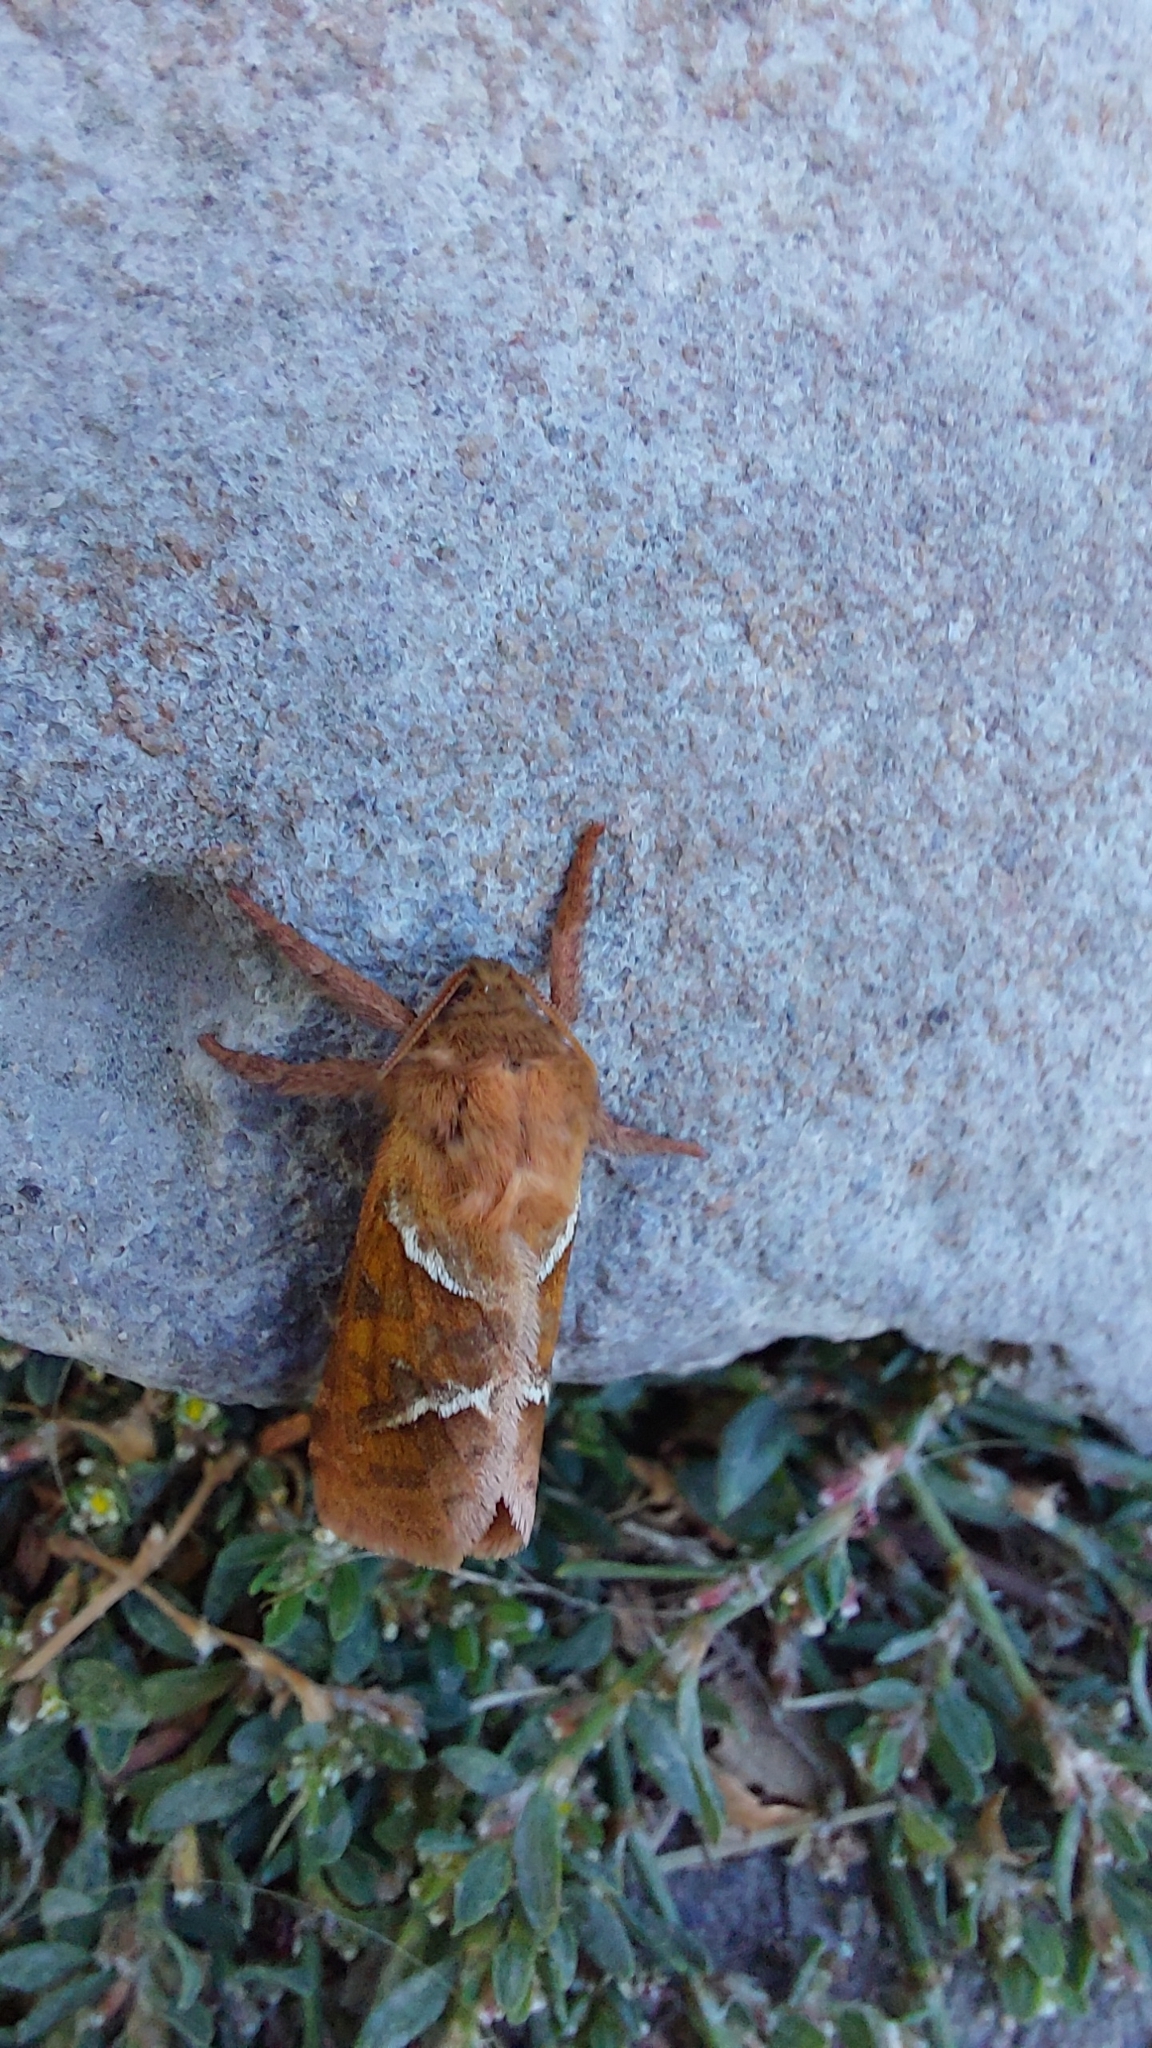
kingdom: Animalia
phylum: Arthropoda
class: Insecta
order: Lepidoptera
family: Hepialidae
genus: Triodia
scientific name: Triodia sylvina
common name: Orange swift
